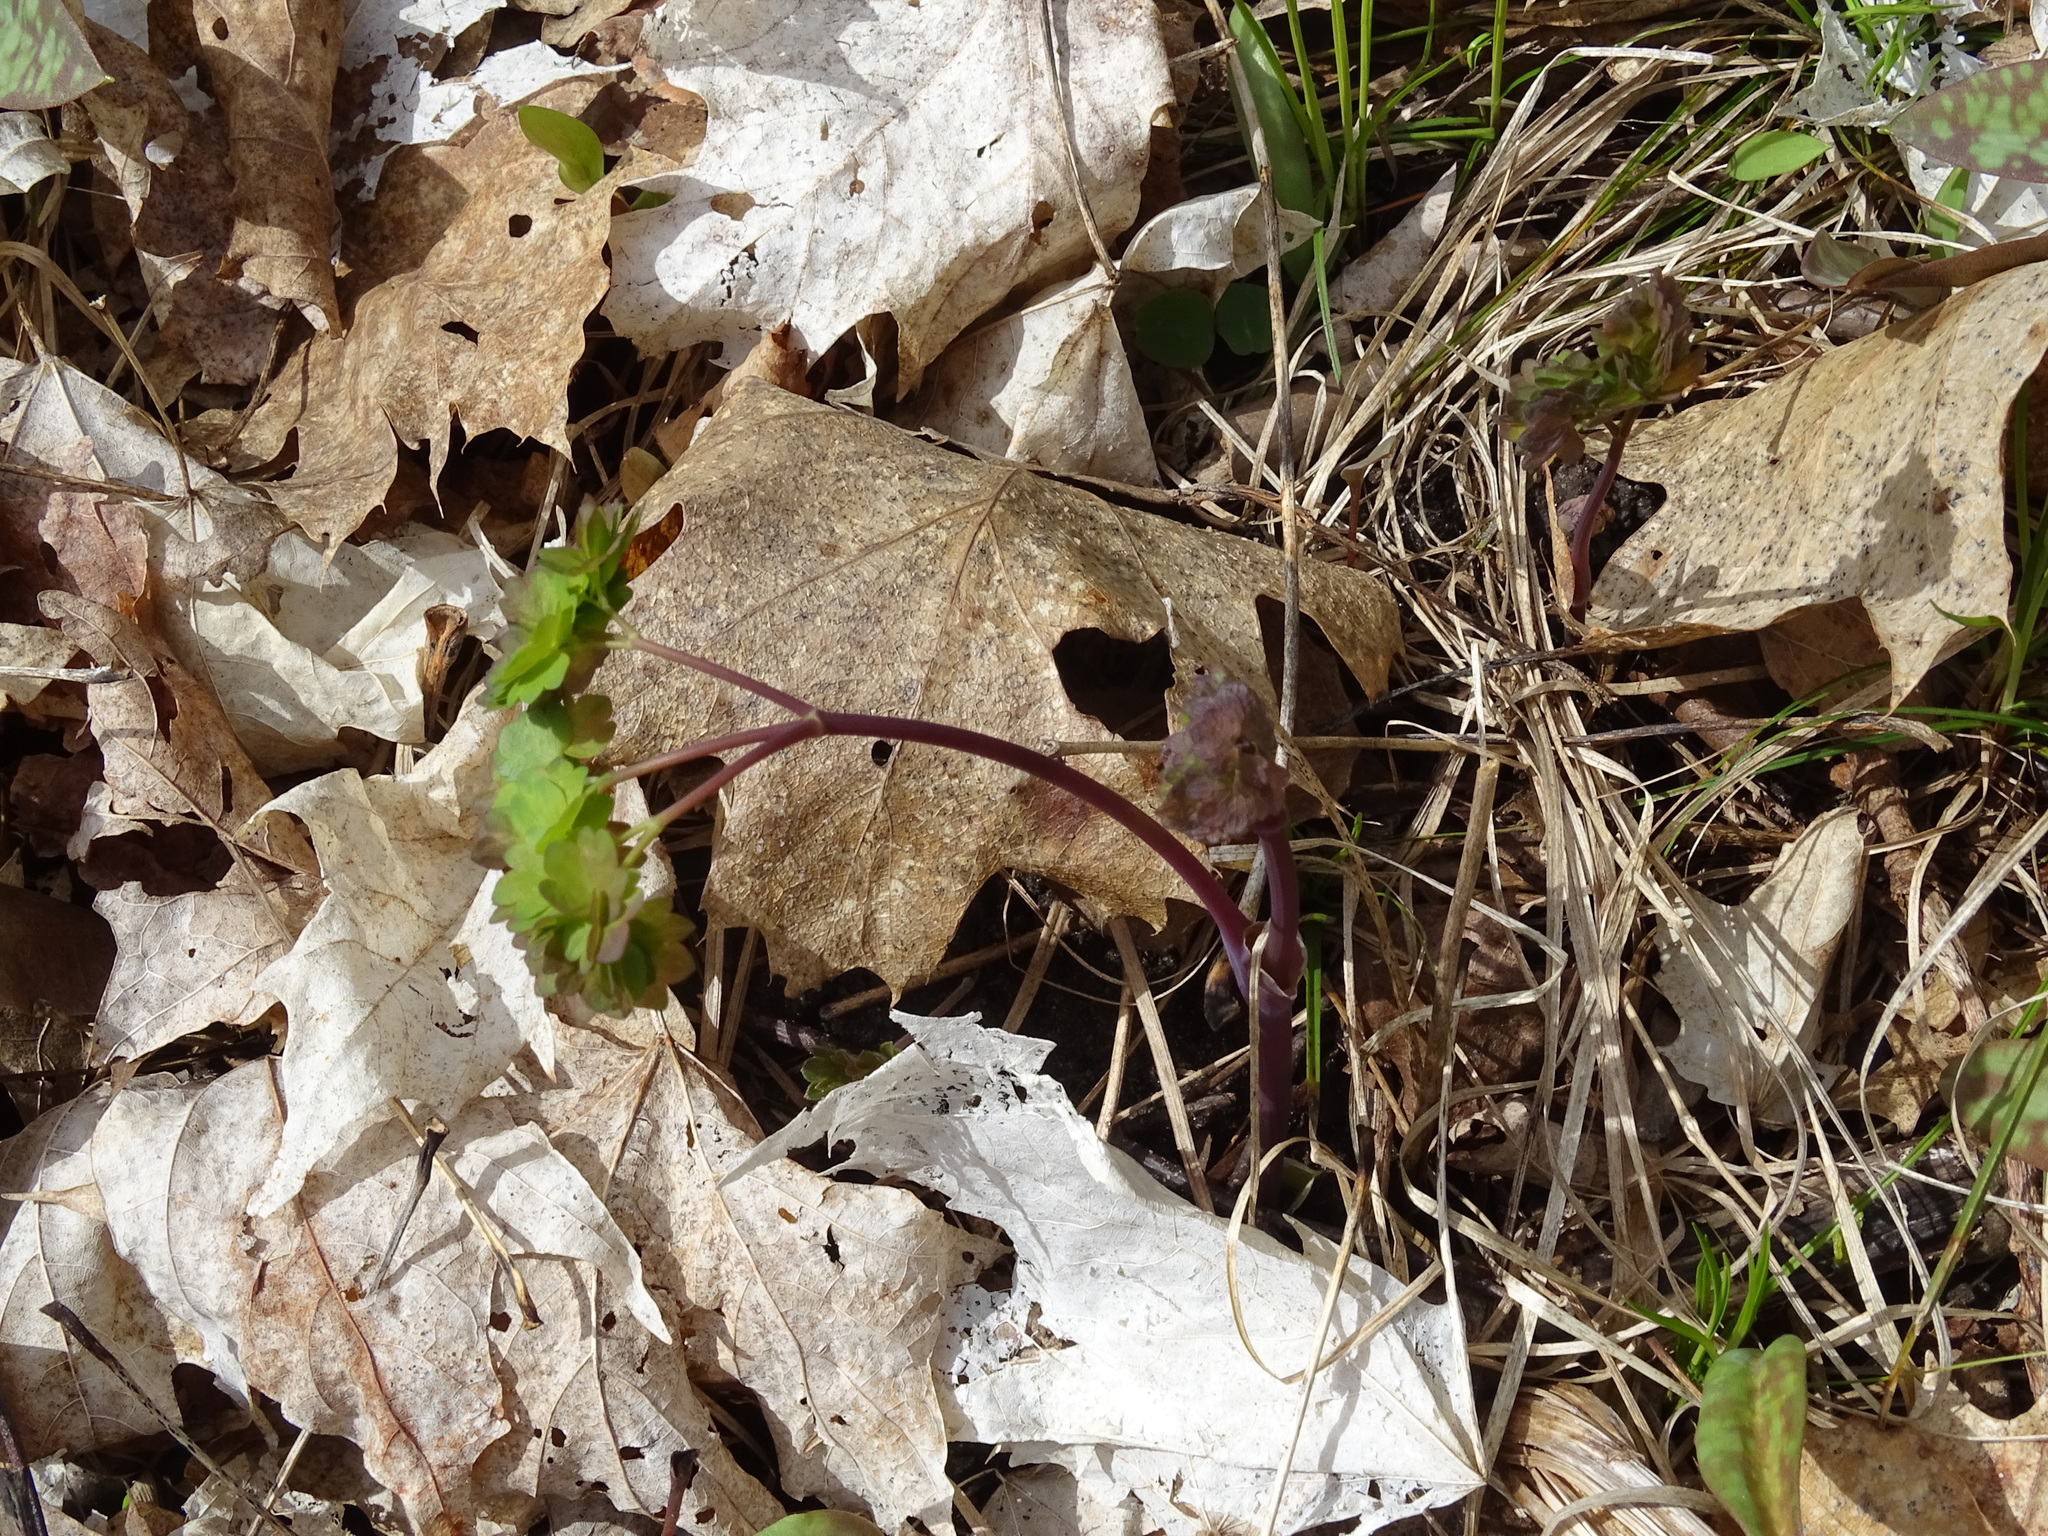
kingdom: Plantae
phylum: Tracheophyta
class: Magnoliopsida
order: Ranunculales
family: Ranunculaceae
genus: Thalictrum
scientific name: Thalictrum dioicum
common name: Early meadow-rue
